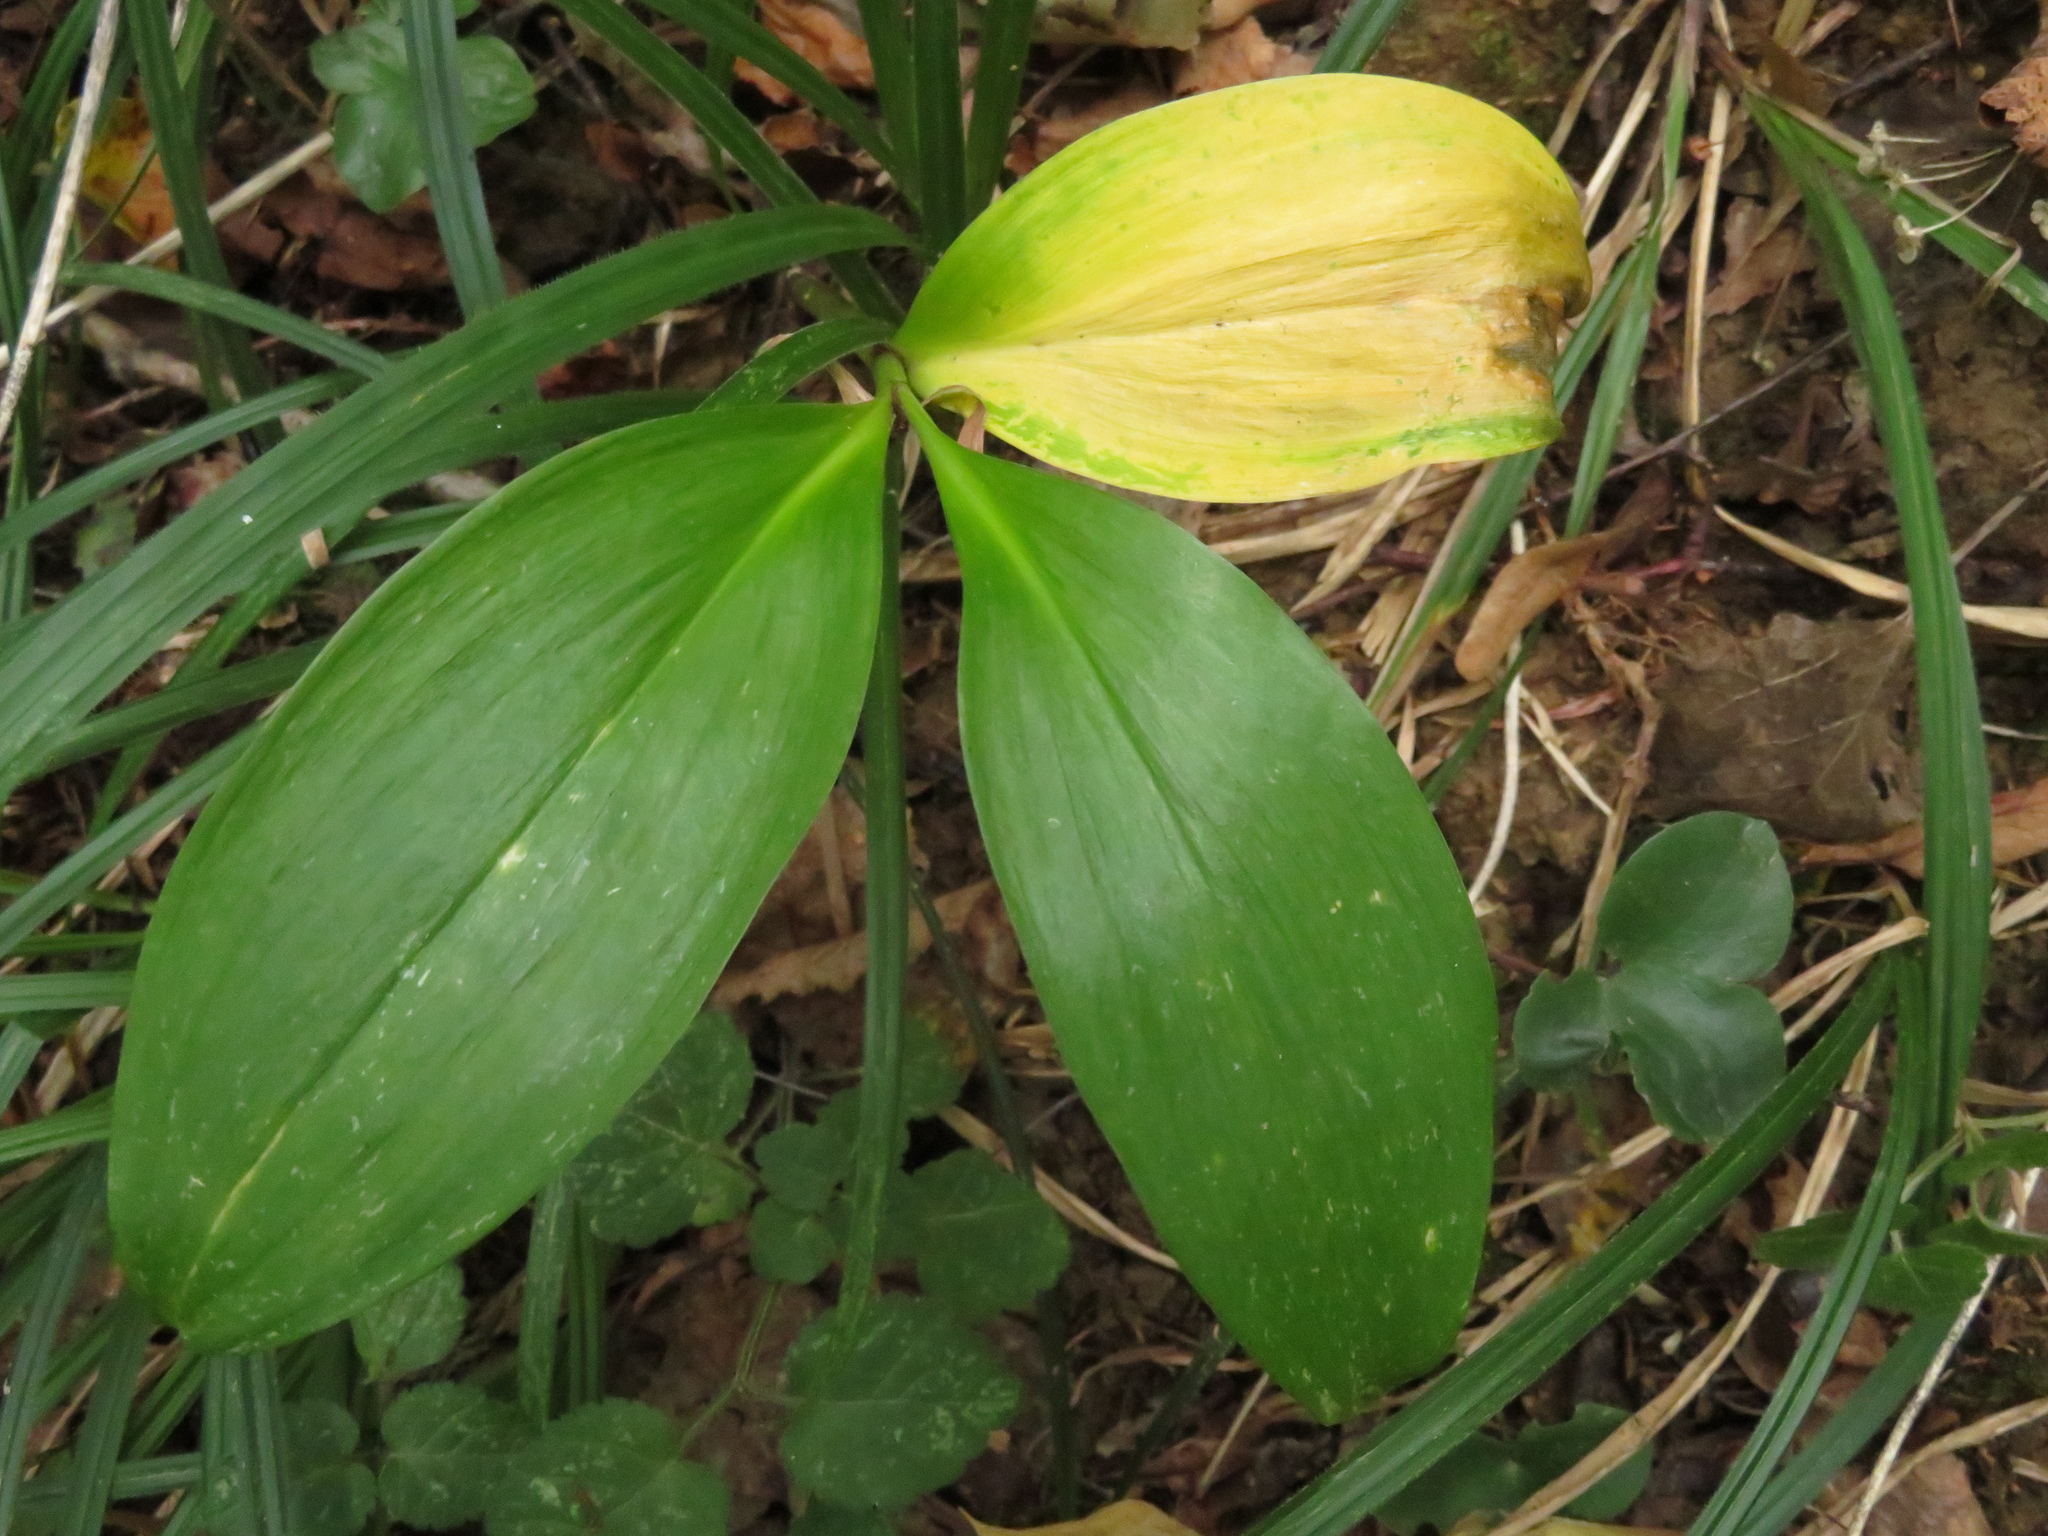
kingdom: Plantae
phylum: Tracheophyta
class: Liliopsida
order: Asparagales
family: Amaryllidaceae
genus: Allium
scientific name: Allium victorialis
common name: Alpine leek
